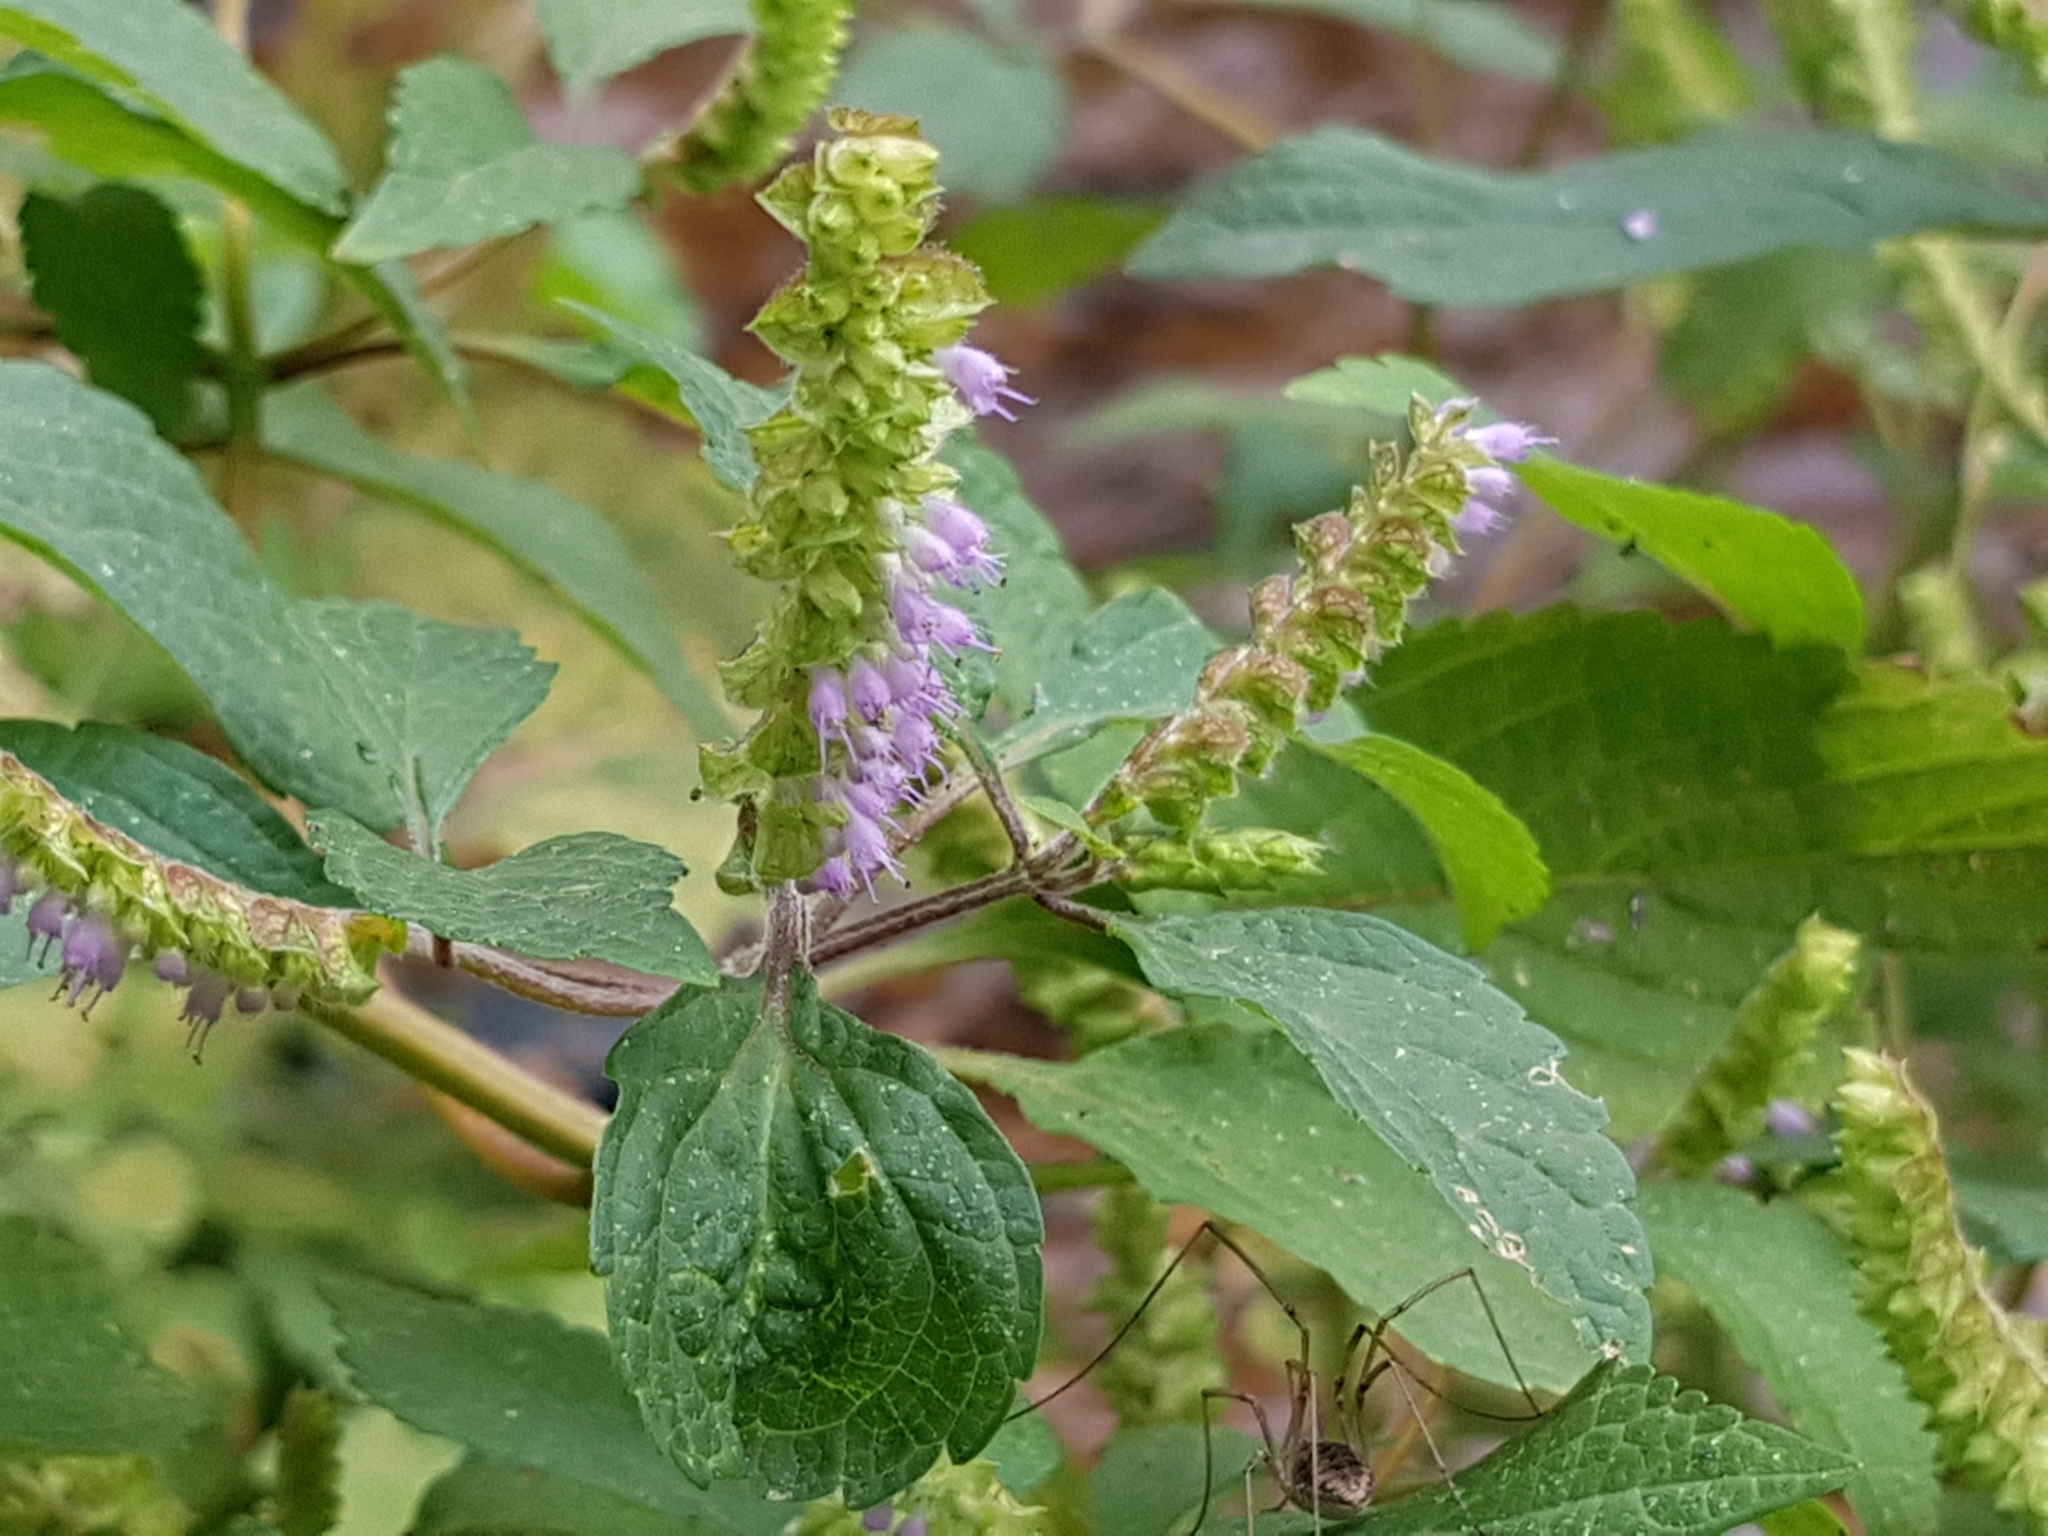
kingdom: Plantae
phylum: Tracheophyta
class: Magnoliopsida
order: Lamiales
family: Lamiaceae
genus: Elsholtzia
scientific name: Elsholtzia ciliata
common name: Ciliate elsholtzia
